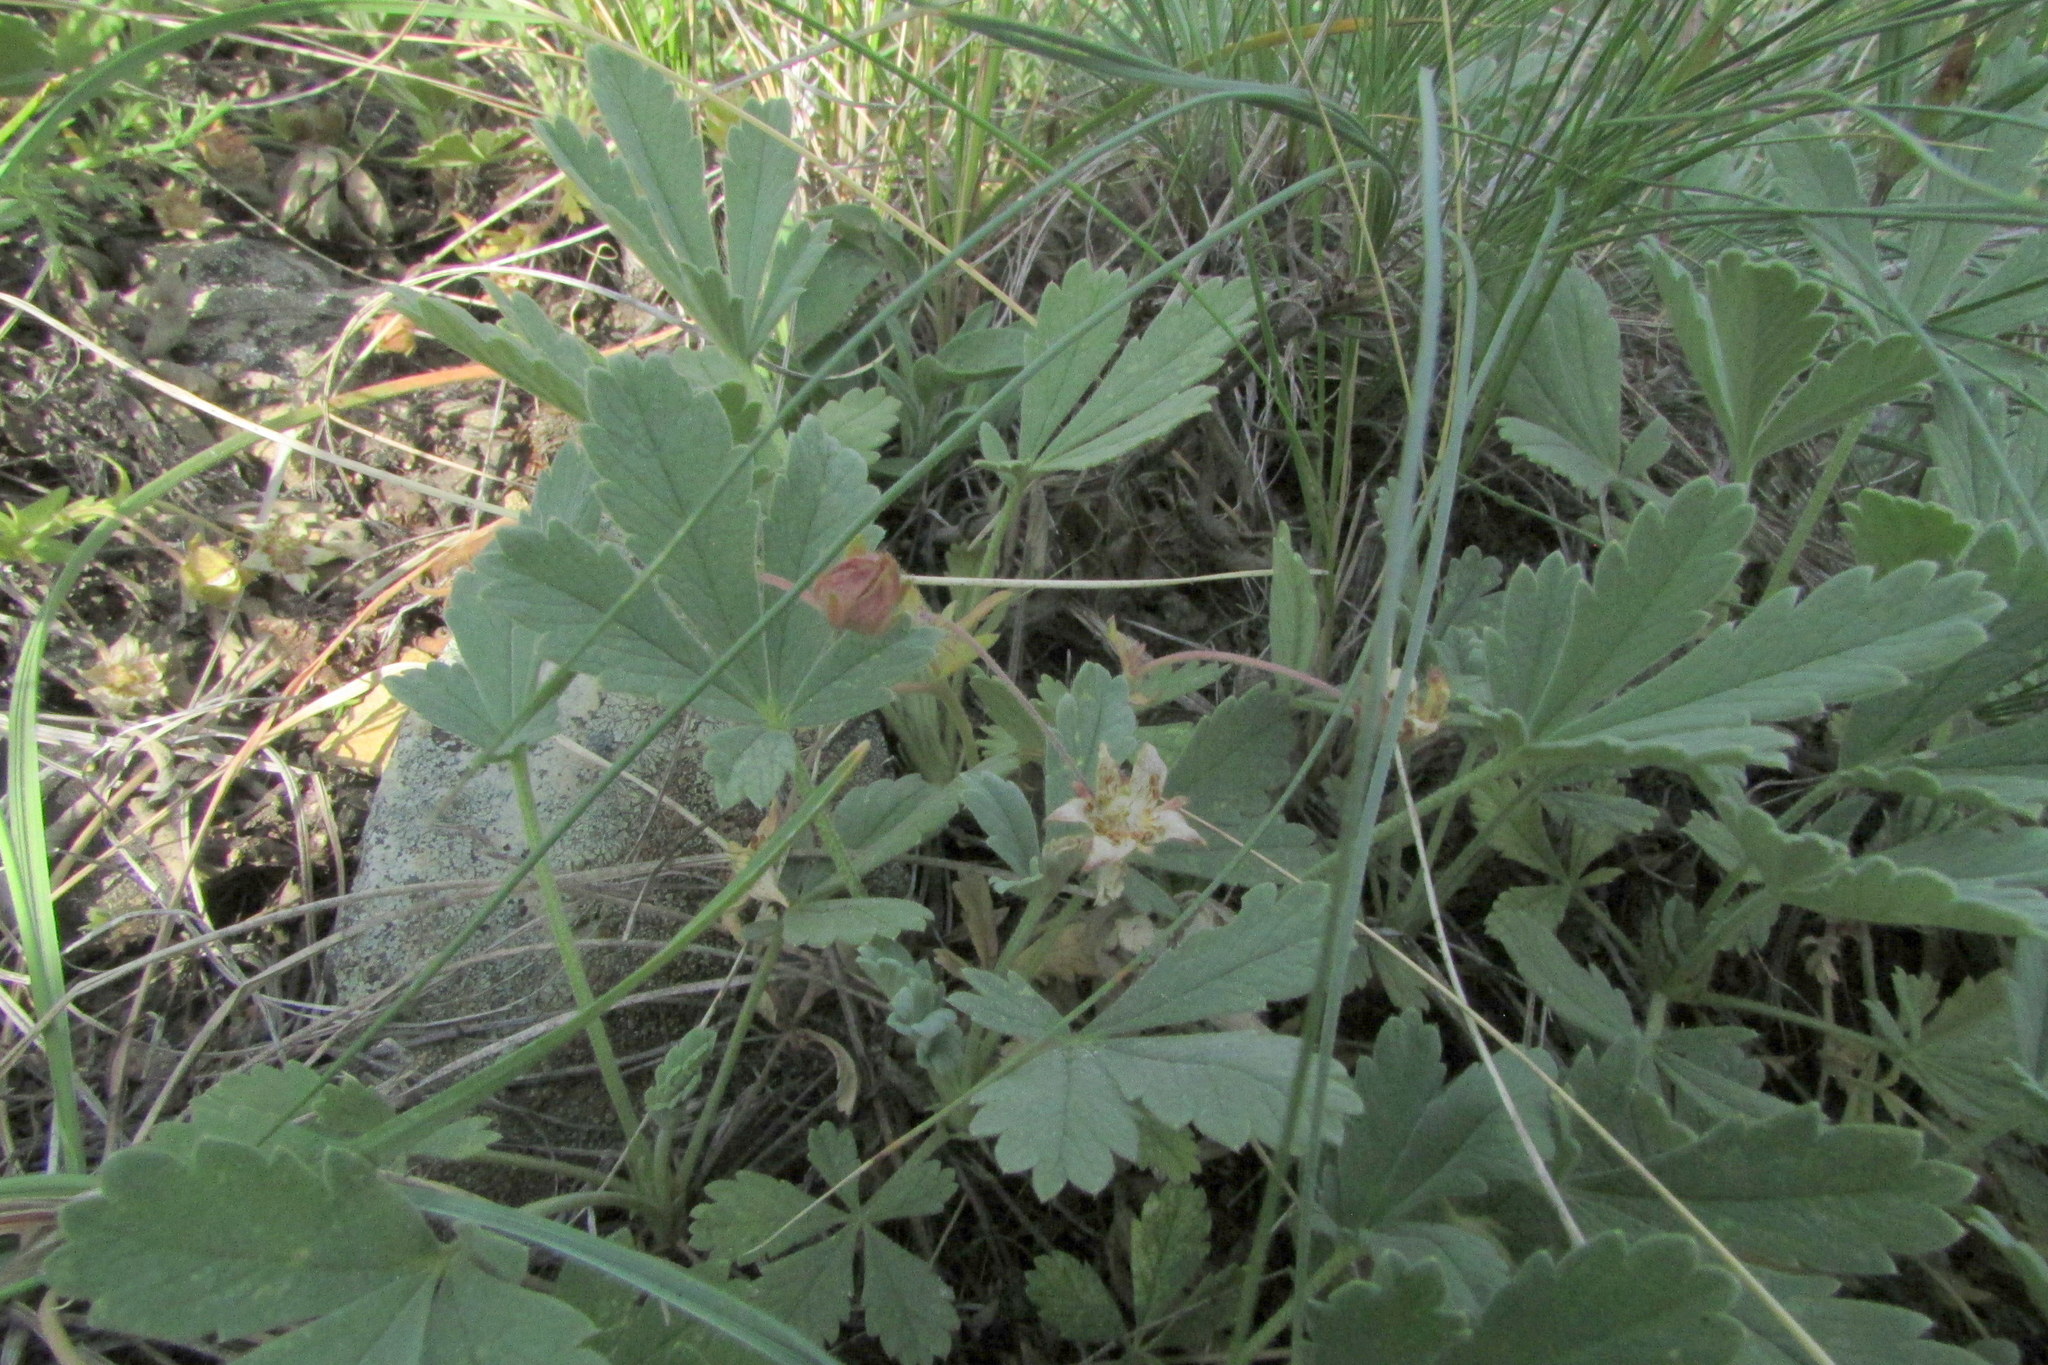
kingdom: Plantae
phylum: Tracheophyta
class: Magnoliopsida
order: Rosales
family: Rosaceae
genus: Potentilla
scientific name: Potentilla incana
